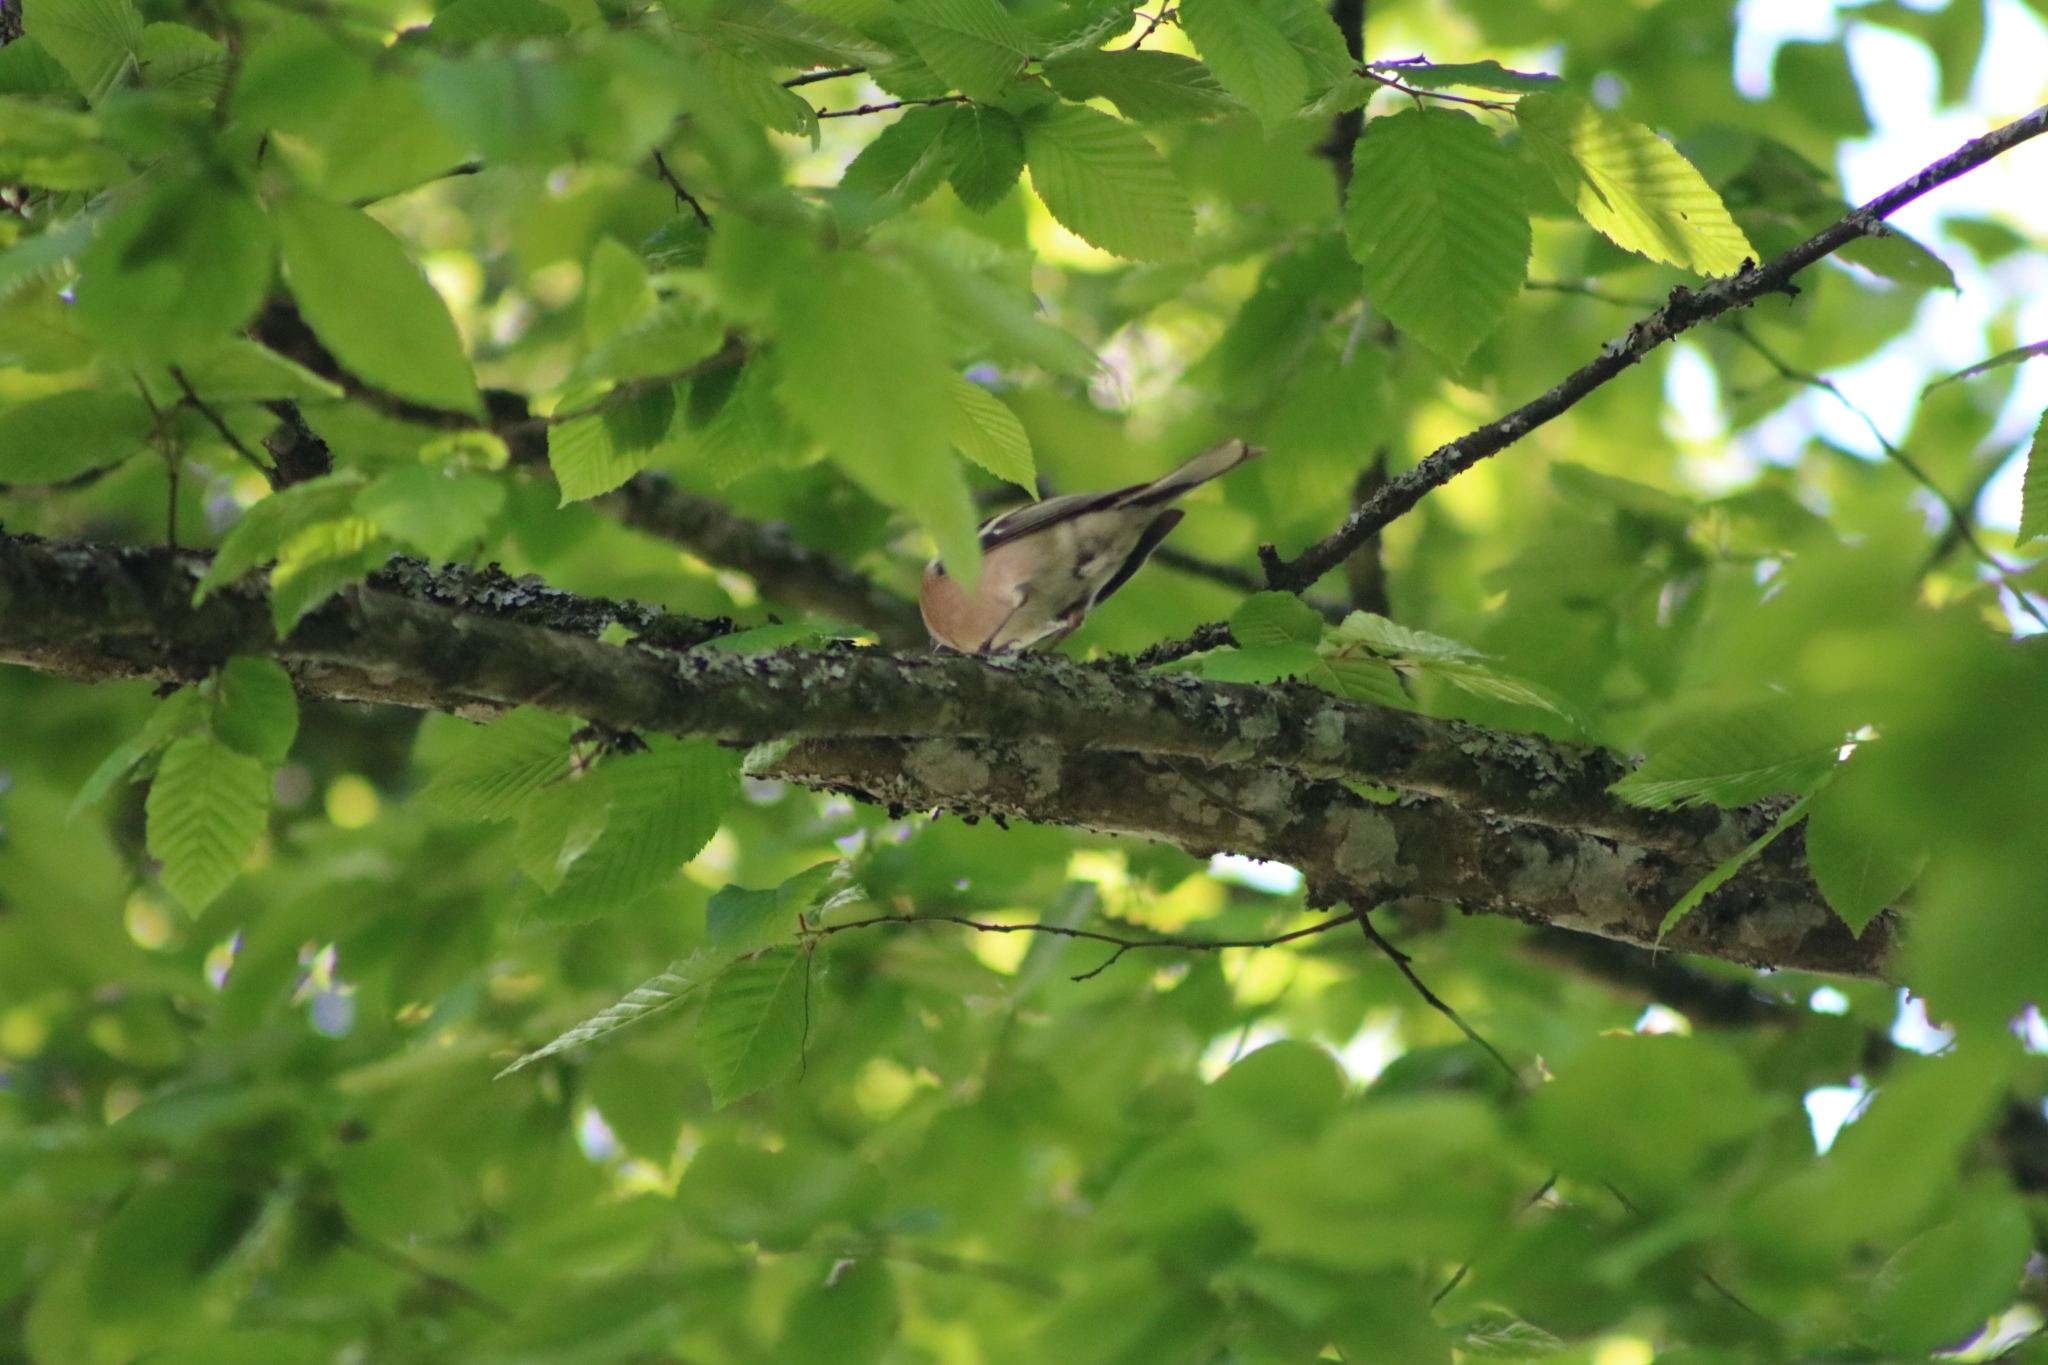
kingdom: Animalia
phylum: Chordata
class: Aves
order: Passeriformes
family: Fringillidae
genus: Fringilla
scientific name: Fringilla coelebs
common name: Common chaffinch
